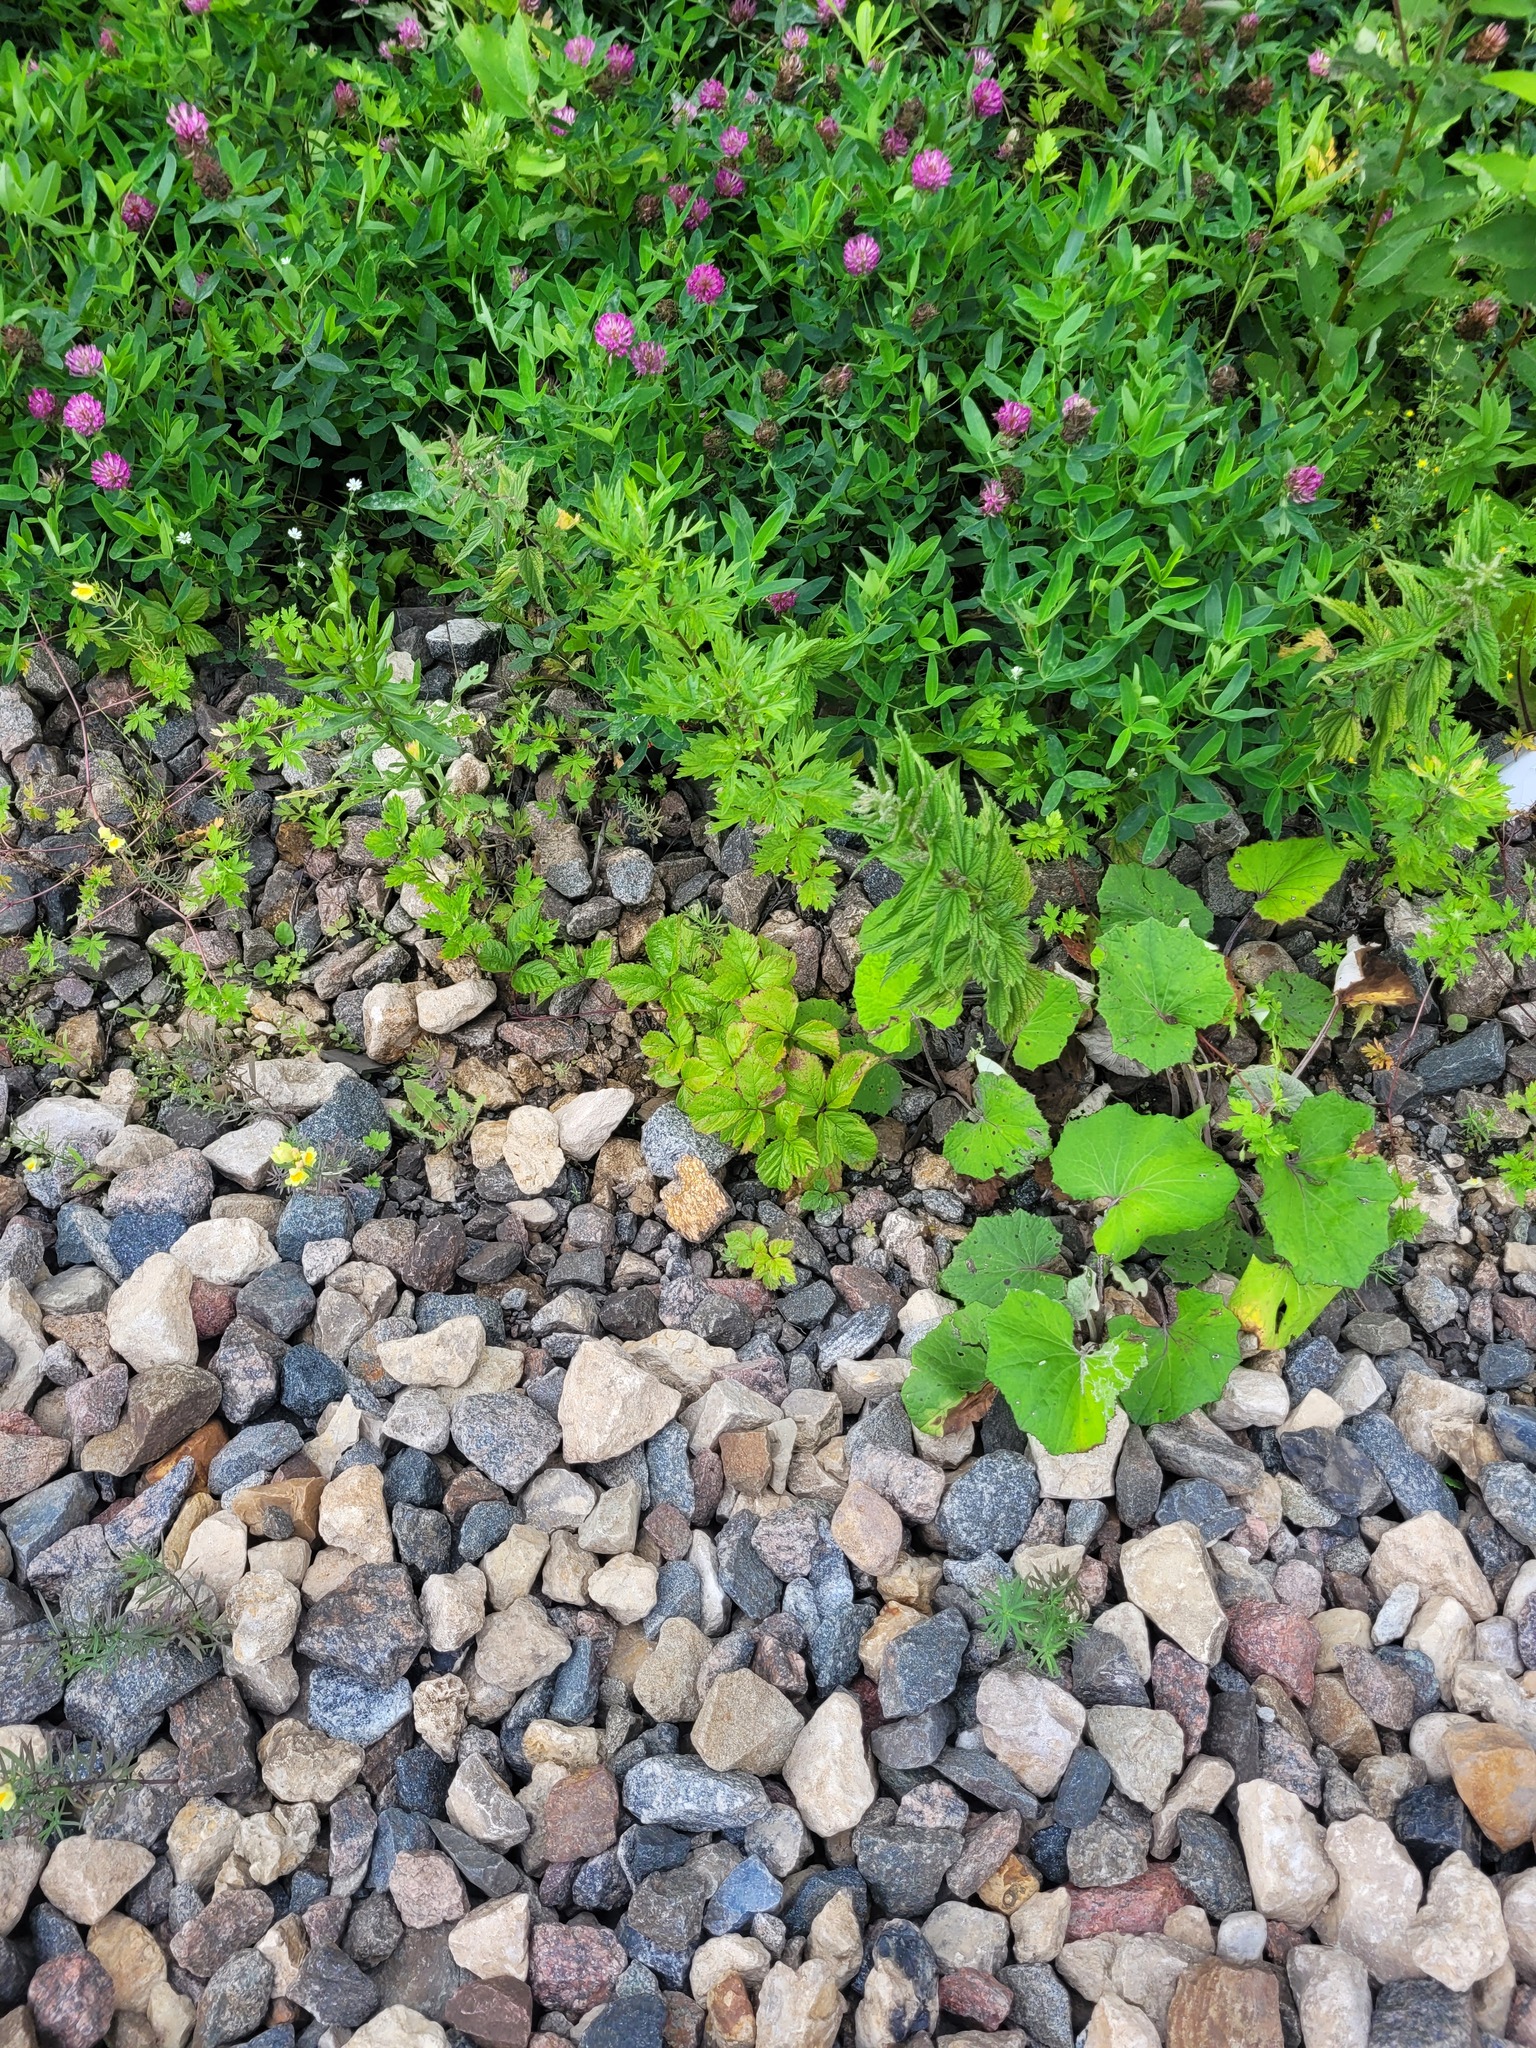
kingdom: Plantae
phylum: Tracheophyta
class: Magnoliopsida
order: Rosales
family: Rosaceae
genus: Rubus
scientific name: Rubus saxatilis
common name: Stone bramble
